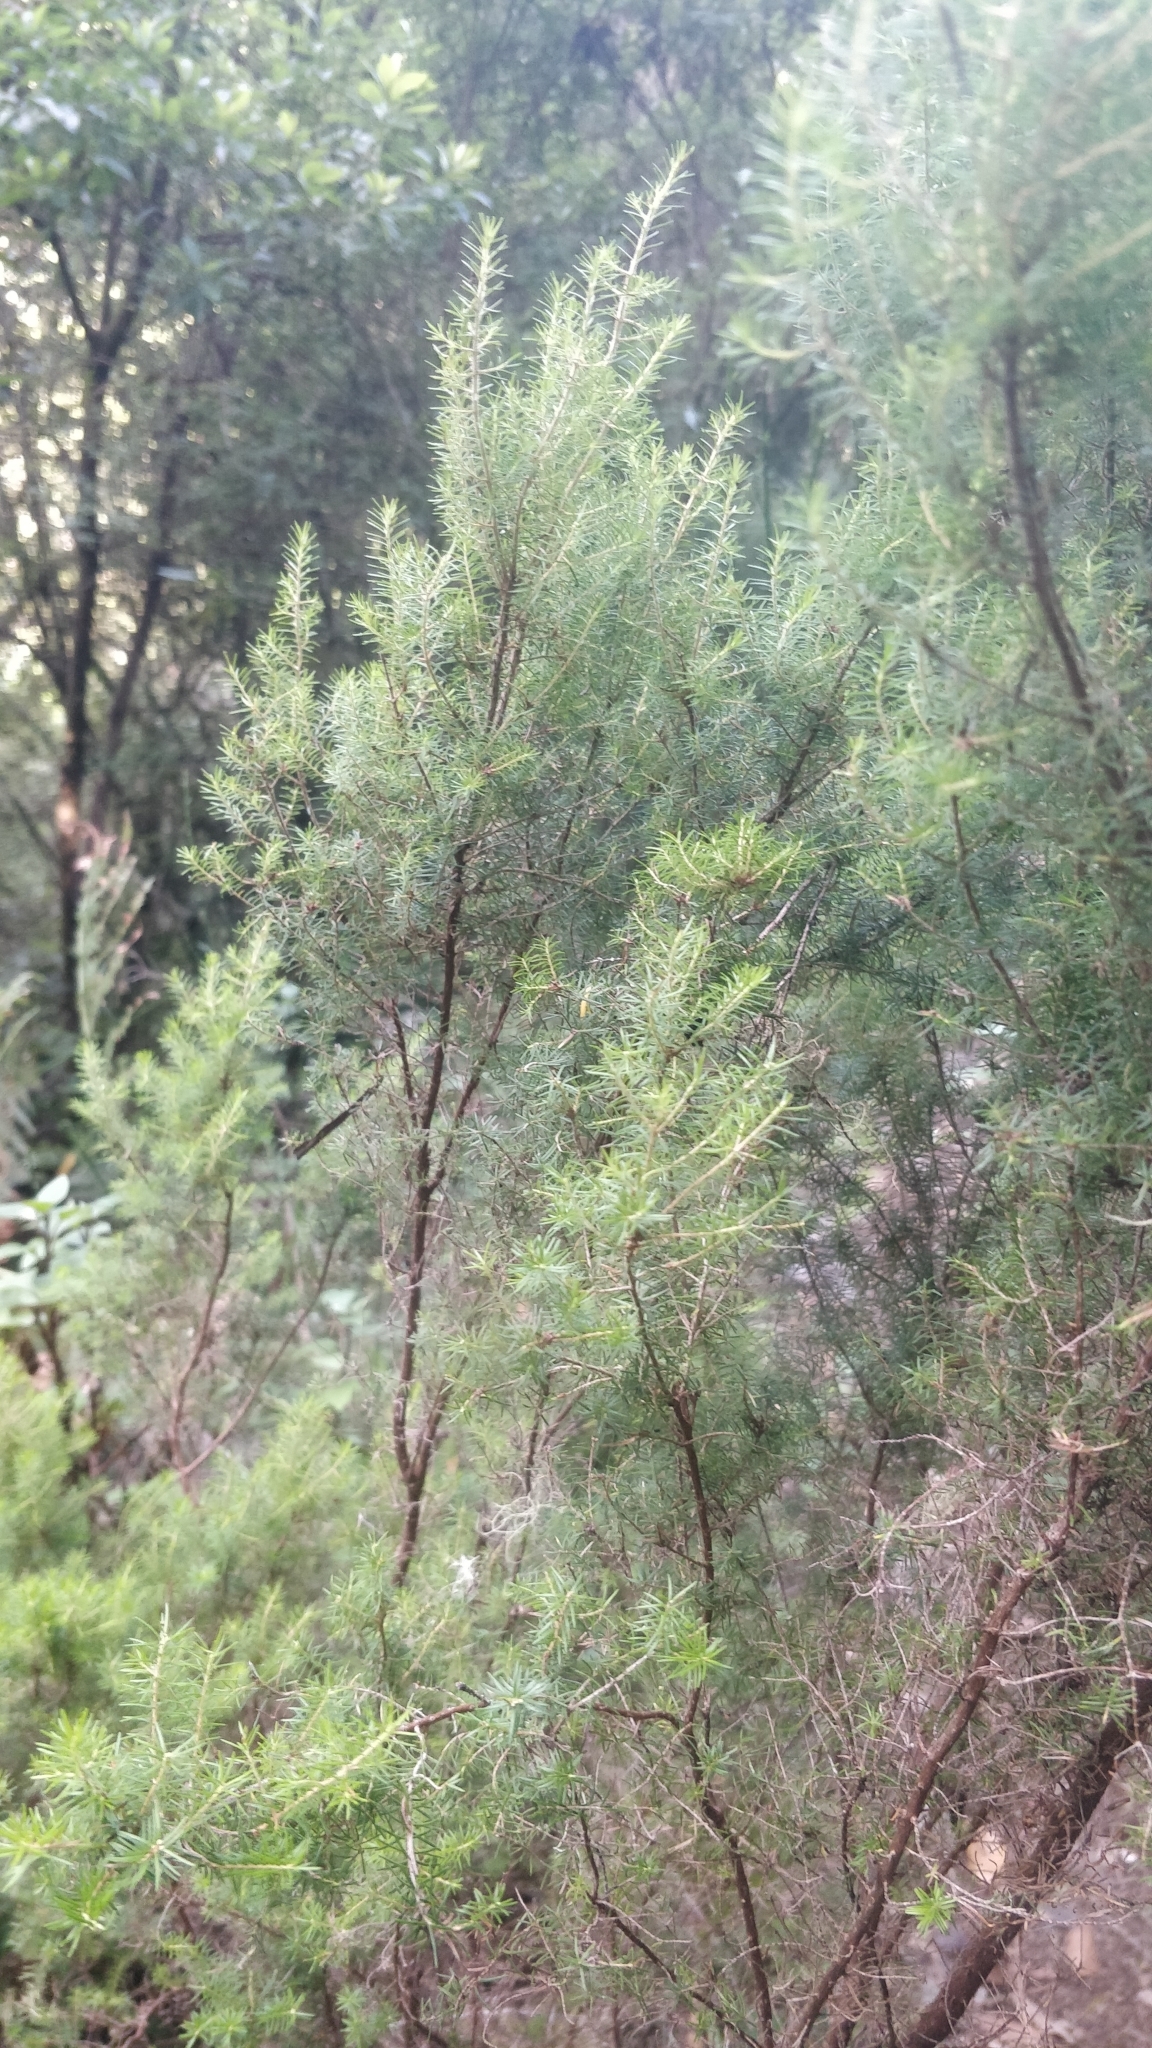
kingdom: Plantae
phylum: Tracheophyta
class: Magnoliopsida
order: Ericales
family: Ericaceae
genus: Erica
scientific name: Erica platycodon
